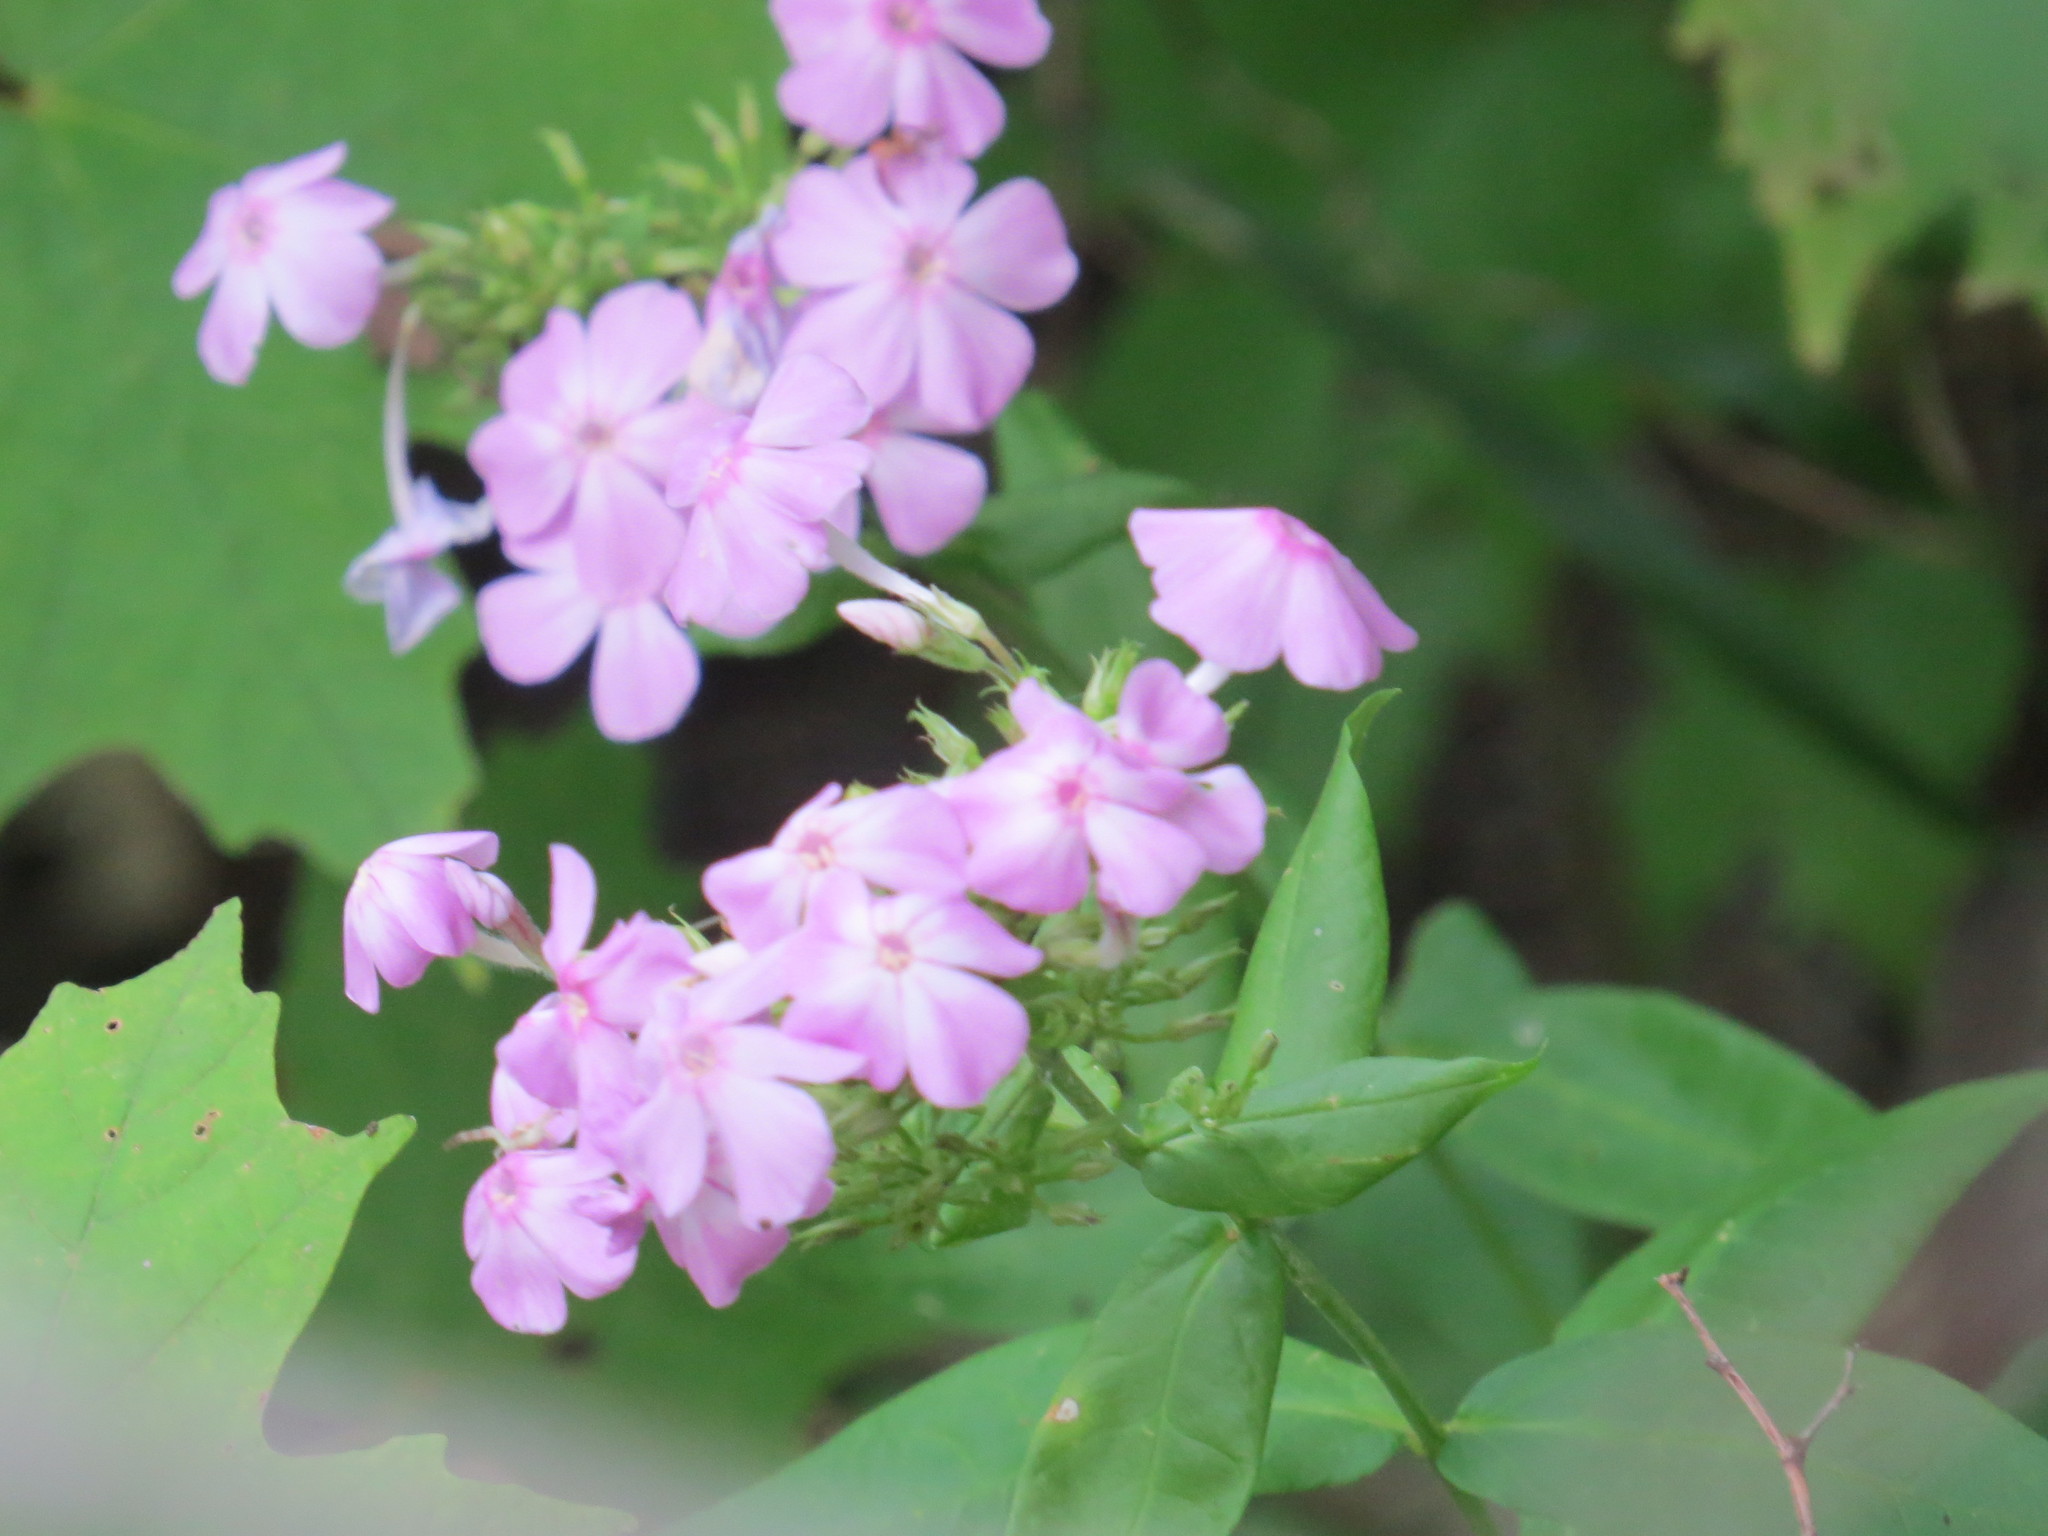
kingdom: Plantae
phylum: Tracheophyta
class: Magnoliopsida
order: Ericales
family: Polemoniaceae
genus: Phlox
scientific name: Phlox paniculata
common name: Fall phlox
